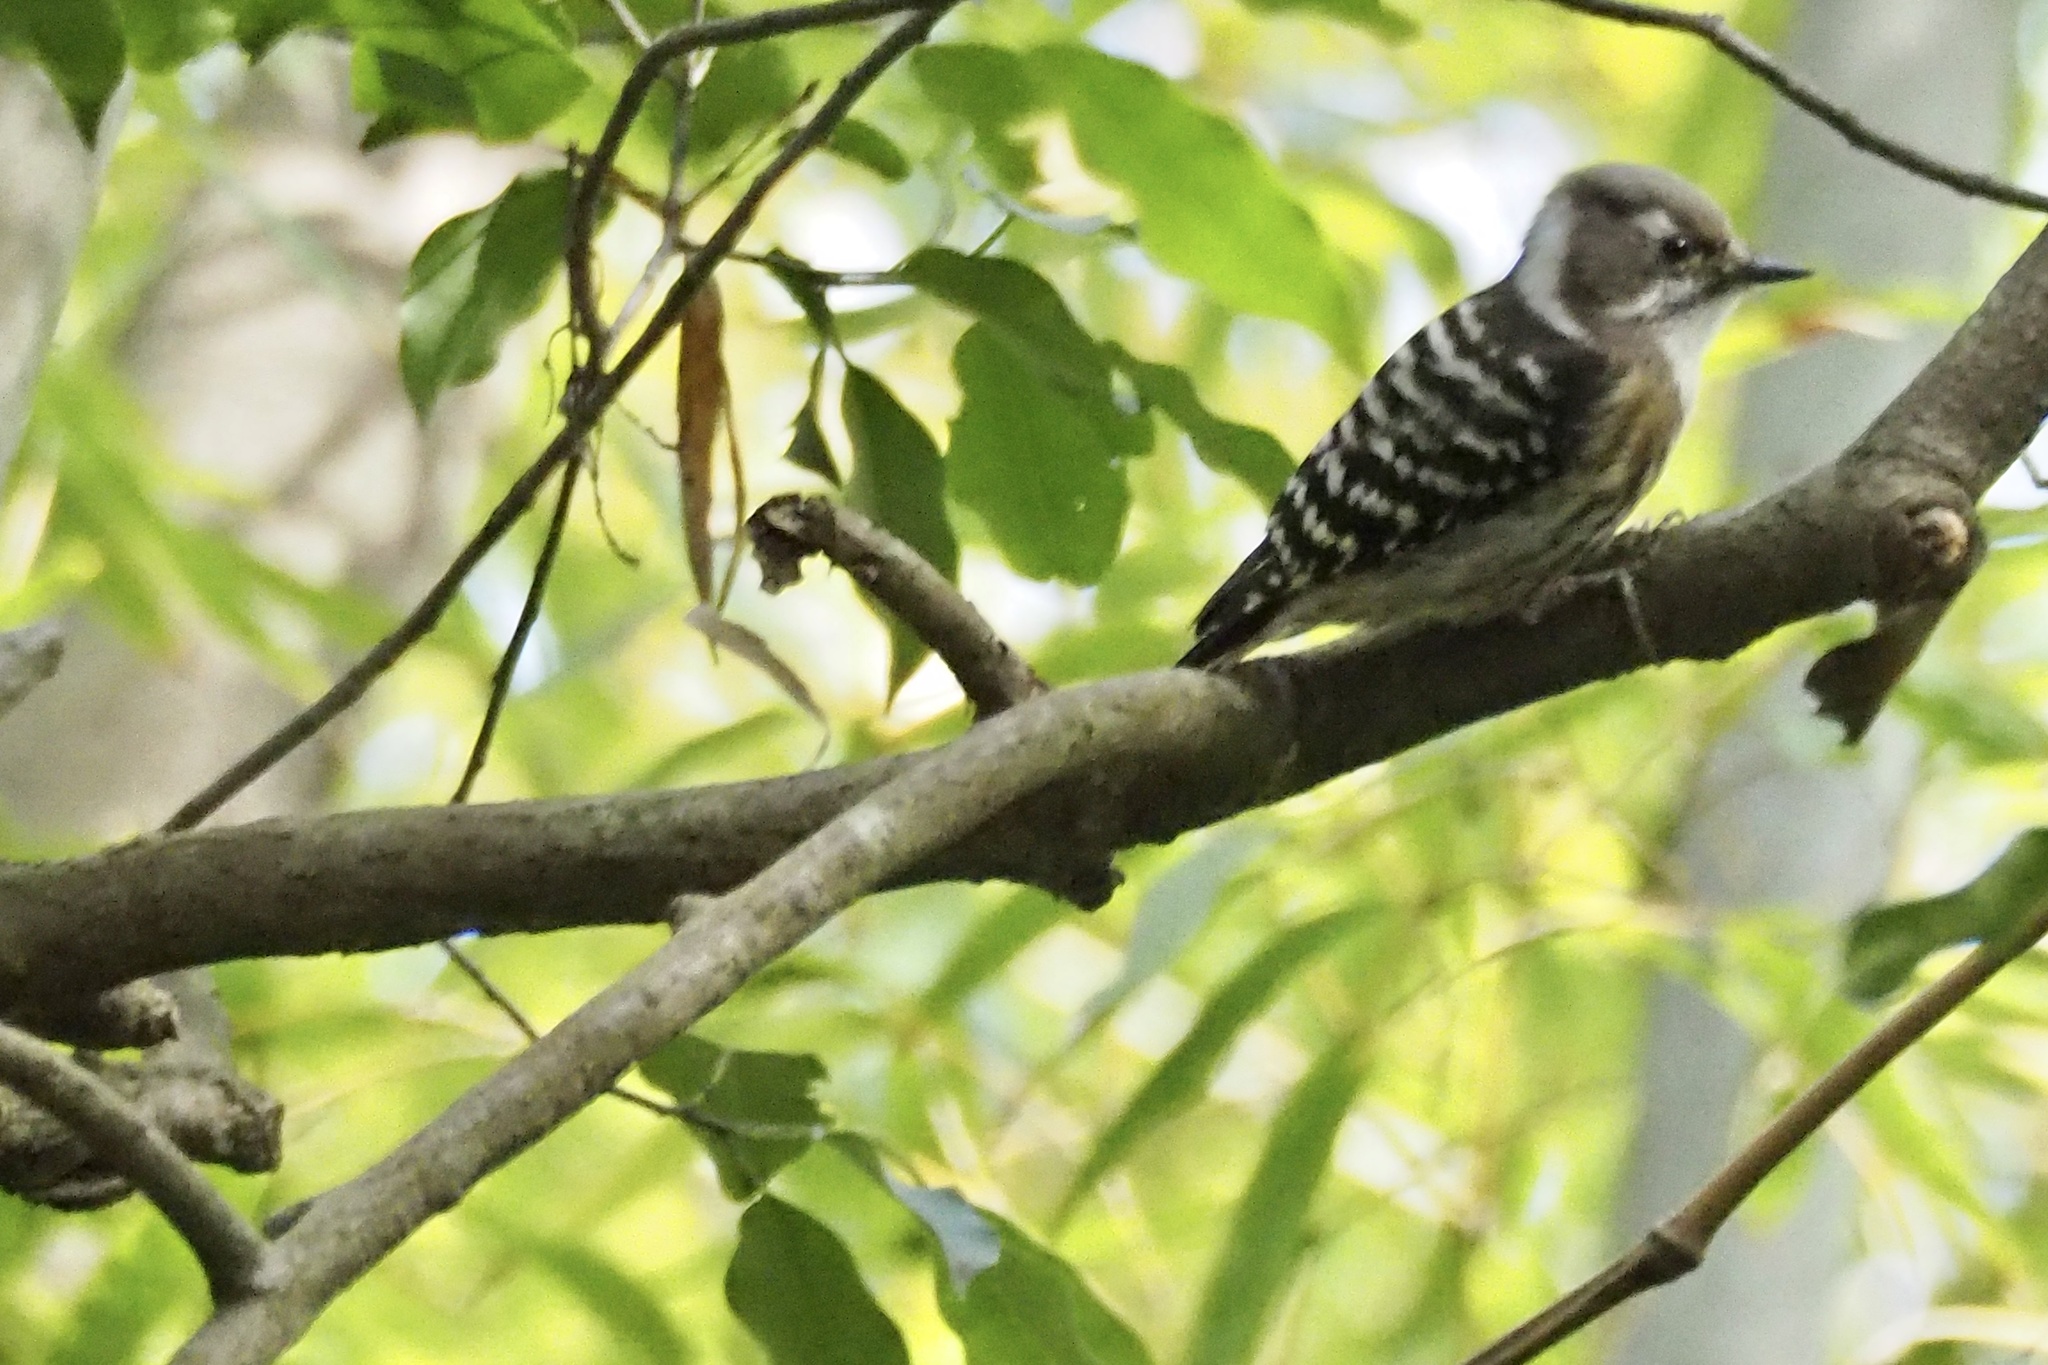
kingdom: Animalia
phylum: Chordata
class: Aves
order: Piciformes
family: Picidae
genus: Yungipicus
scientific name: Yungipicus kizuki
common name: Japanese pygmy woodpecker
